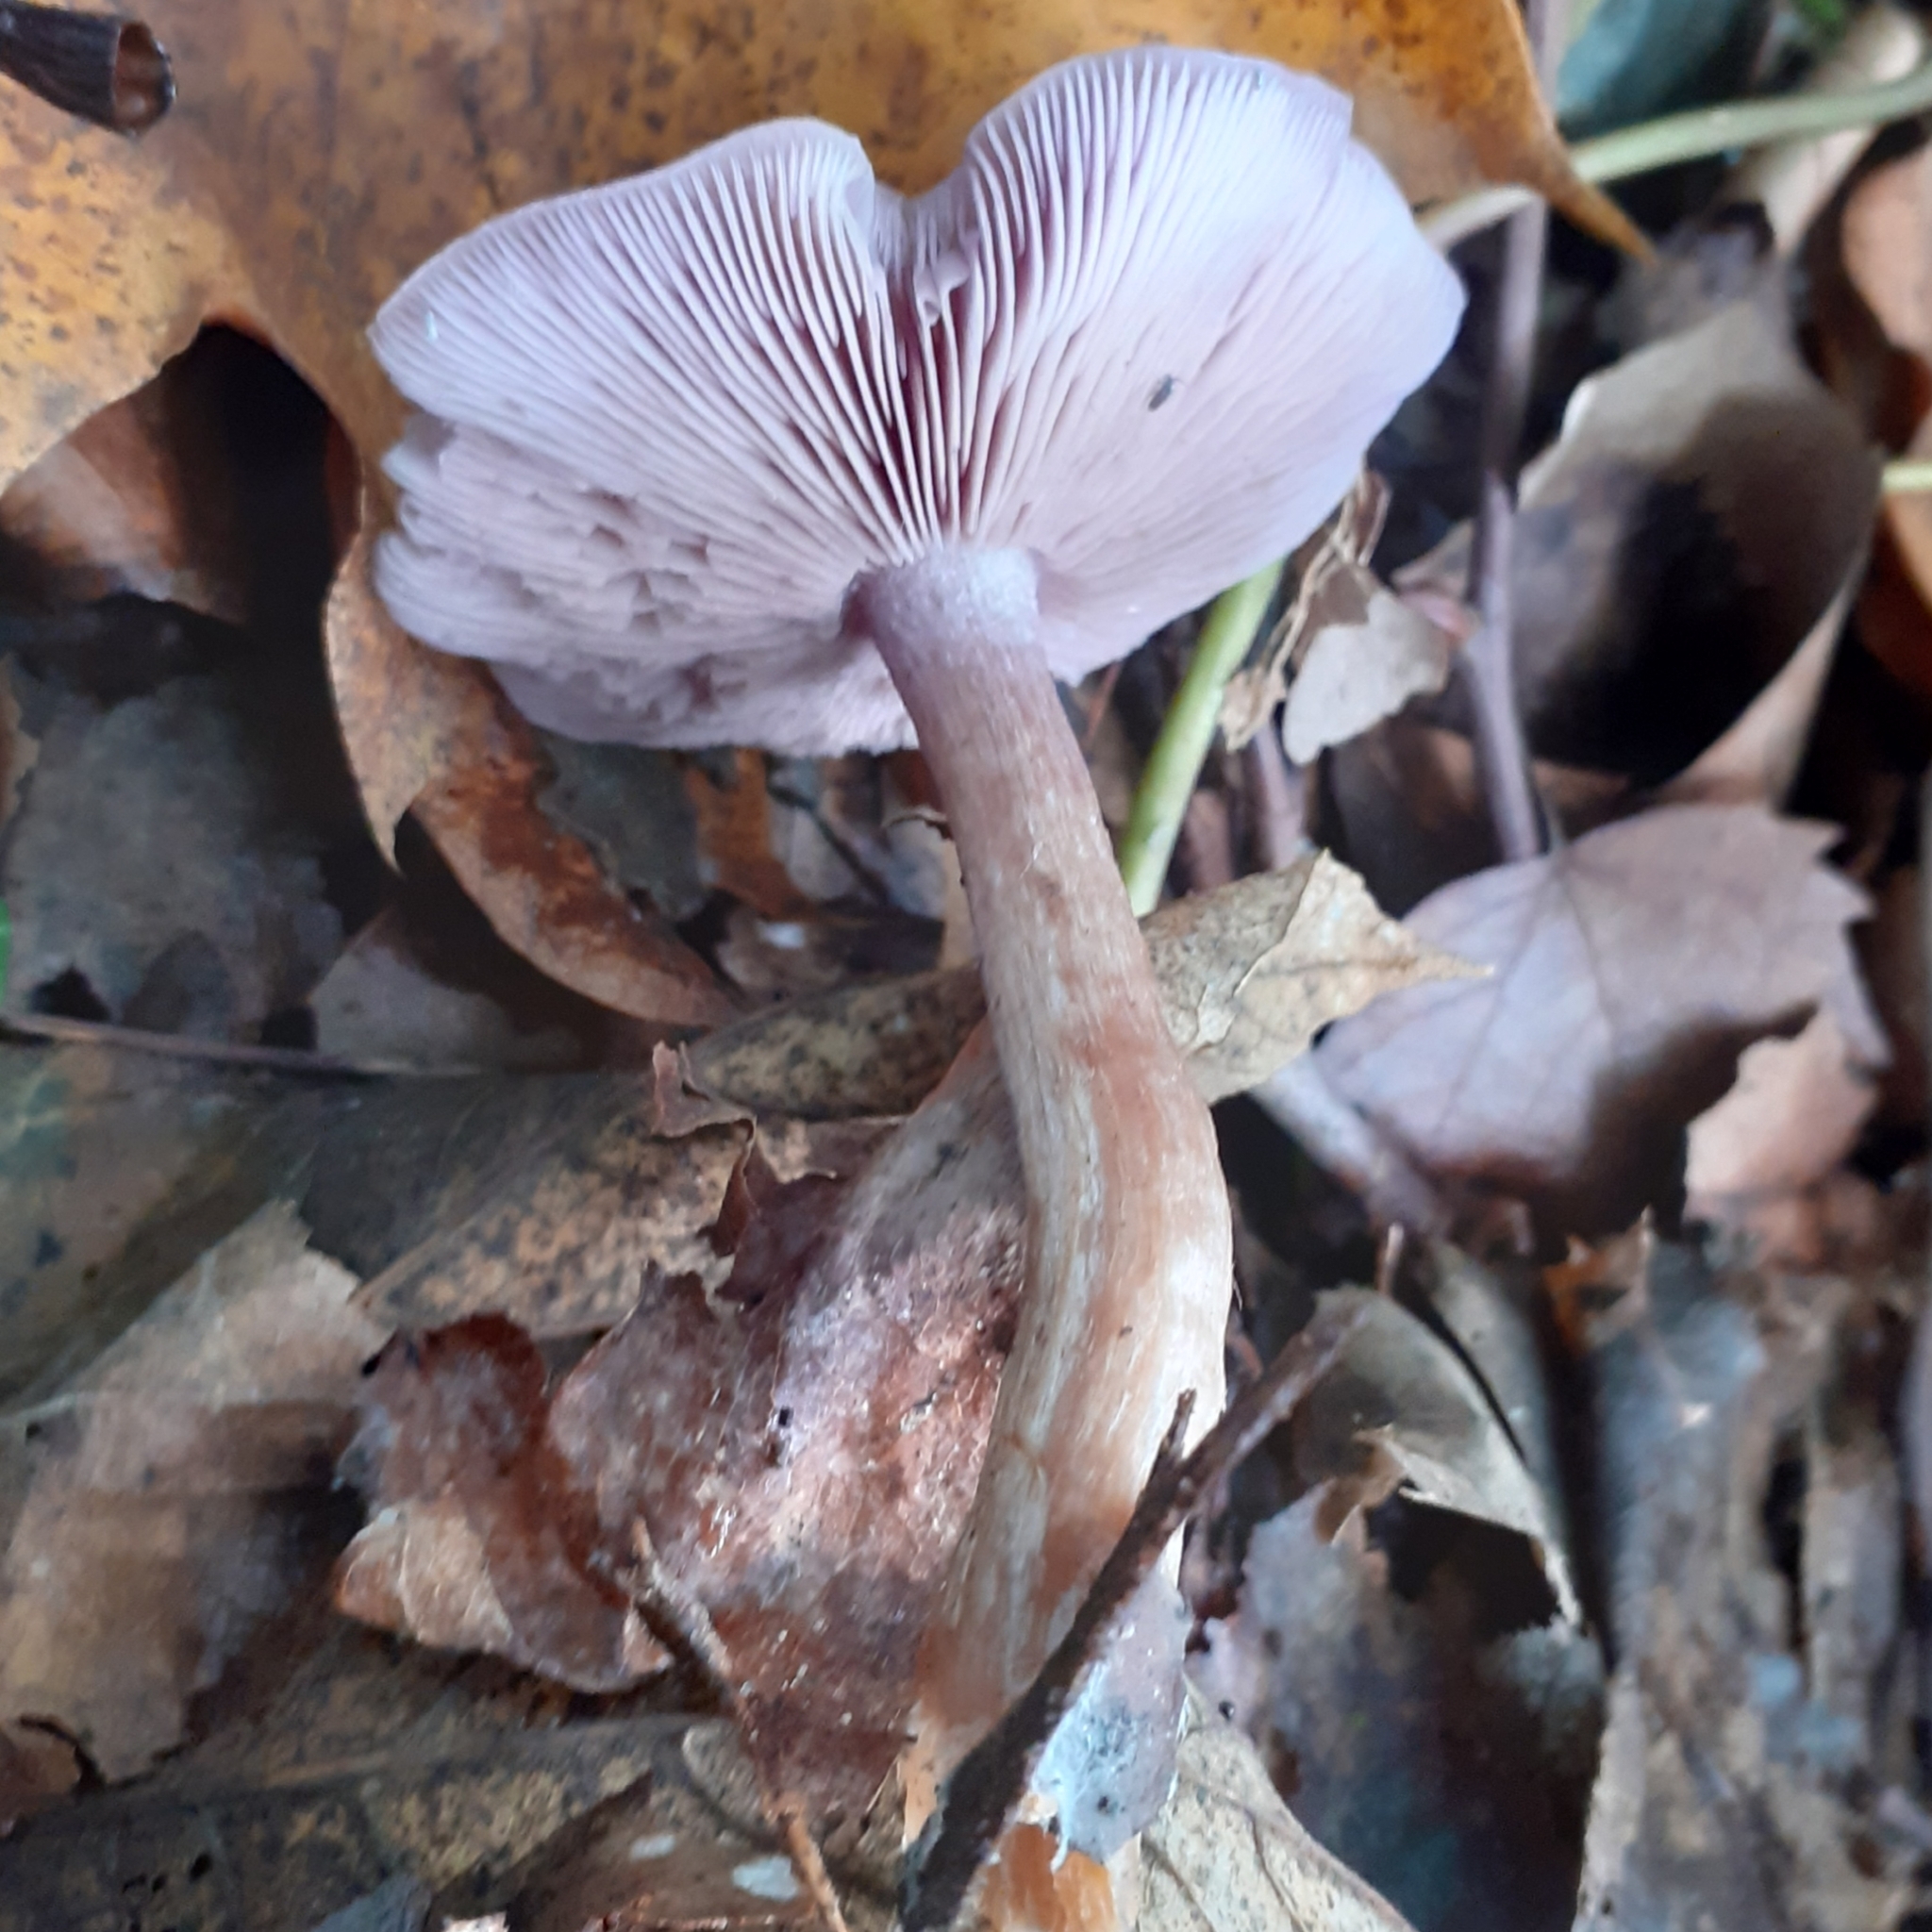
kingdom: Fungi
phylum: Basidiomycota
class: Agaricomycetes
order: Agaricales
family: Tricholomataceae
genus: Collybia
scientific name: Collybia
